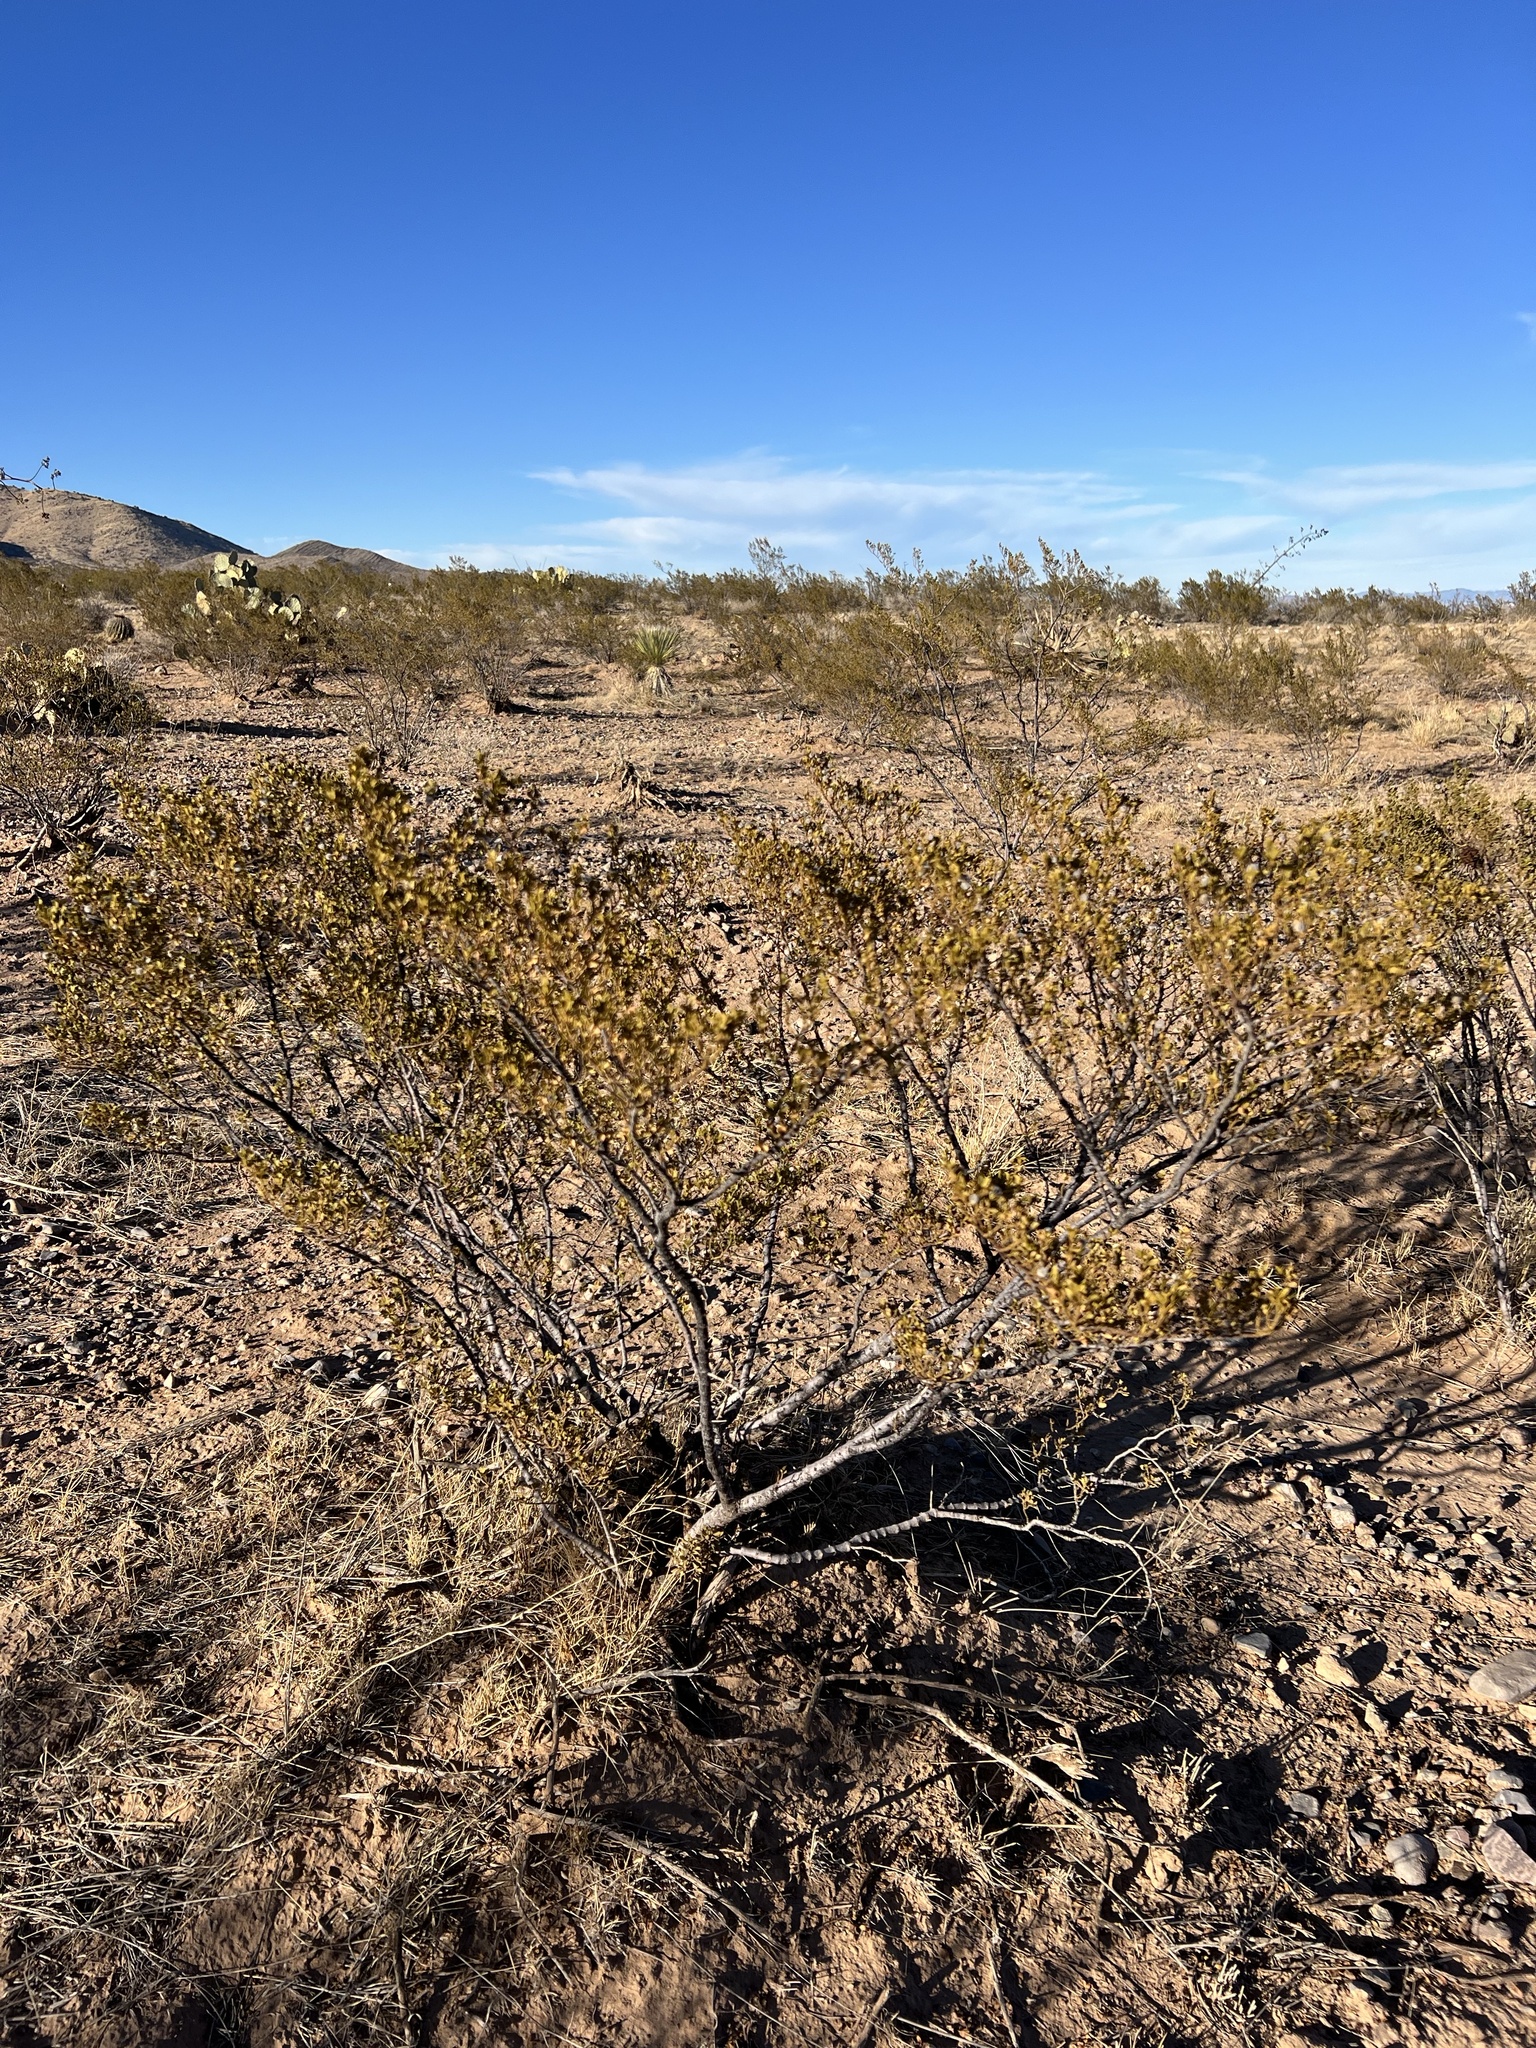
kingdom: Plantae
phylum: Tracheophyta
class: Magnoliopsida
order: Zygophyllales
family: Zygophyllaceae
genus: Larrea
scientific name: Larrea tridentata
